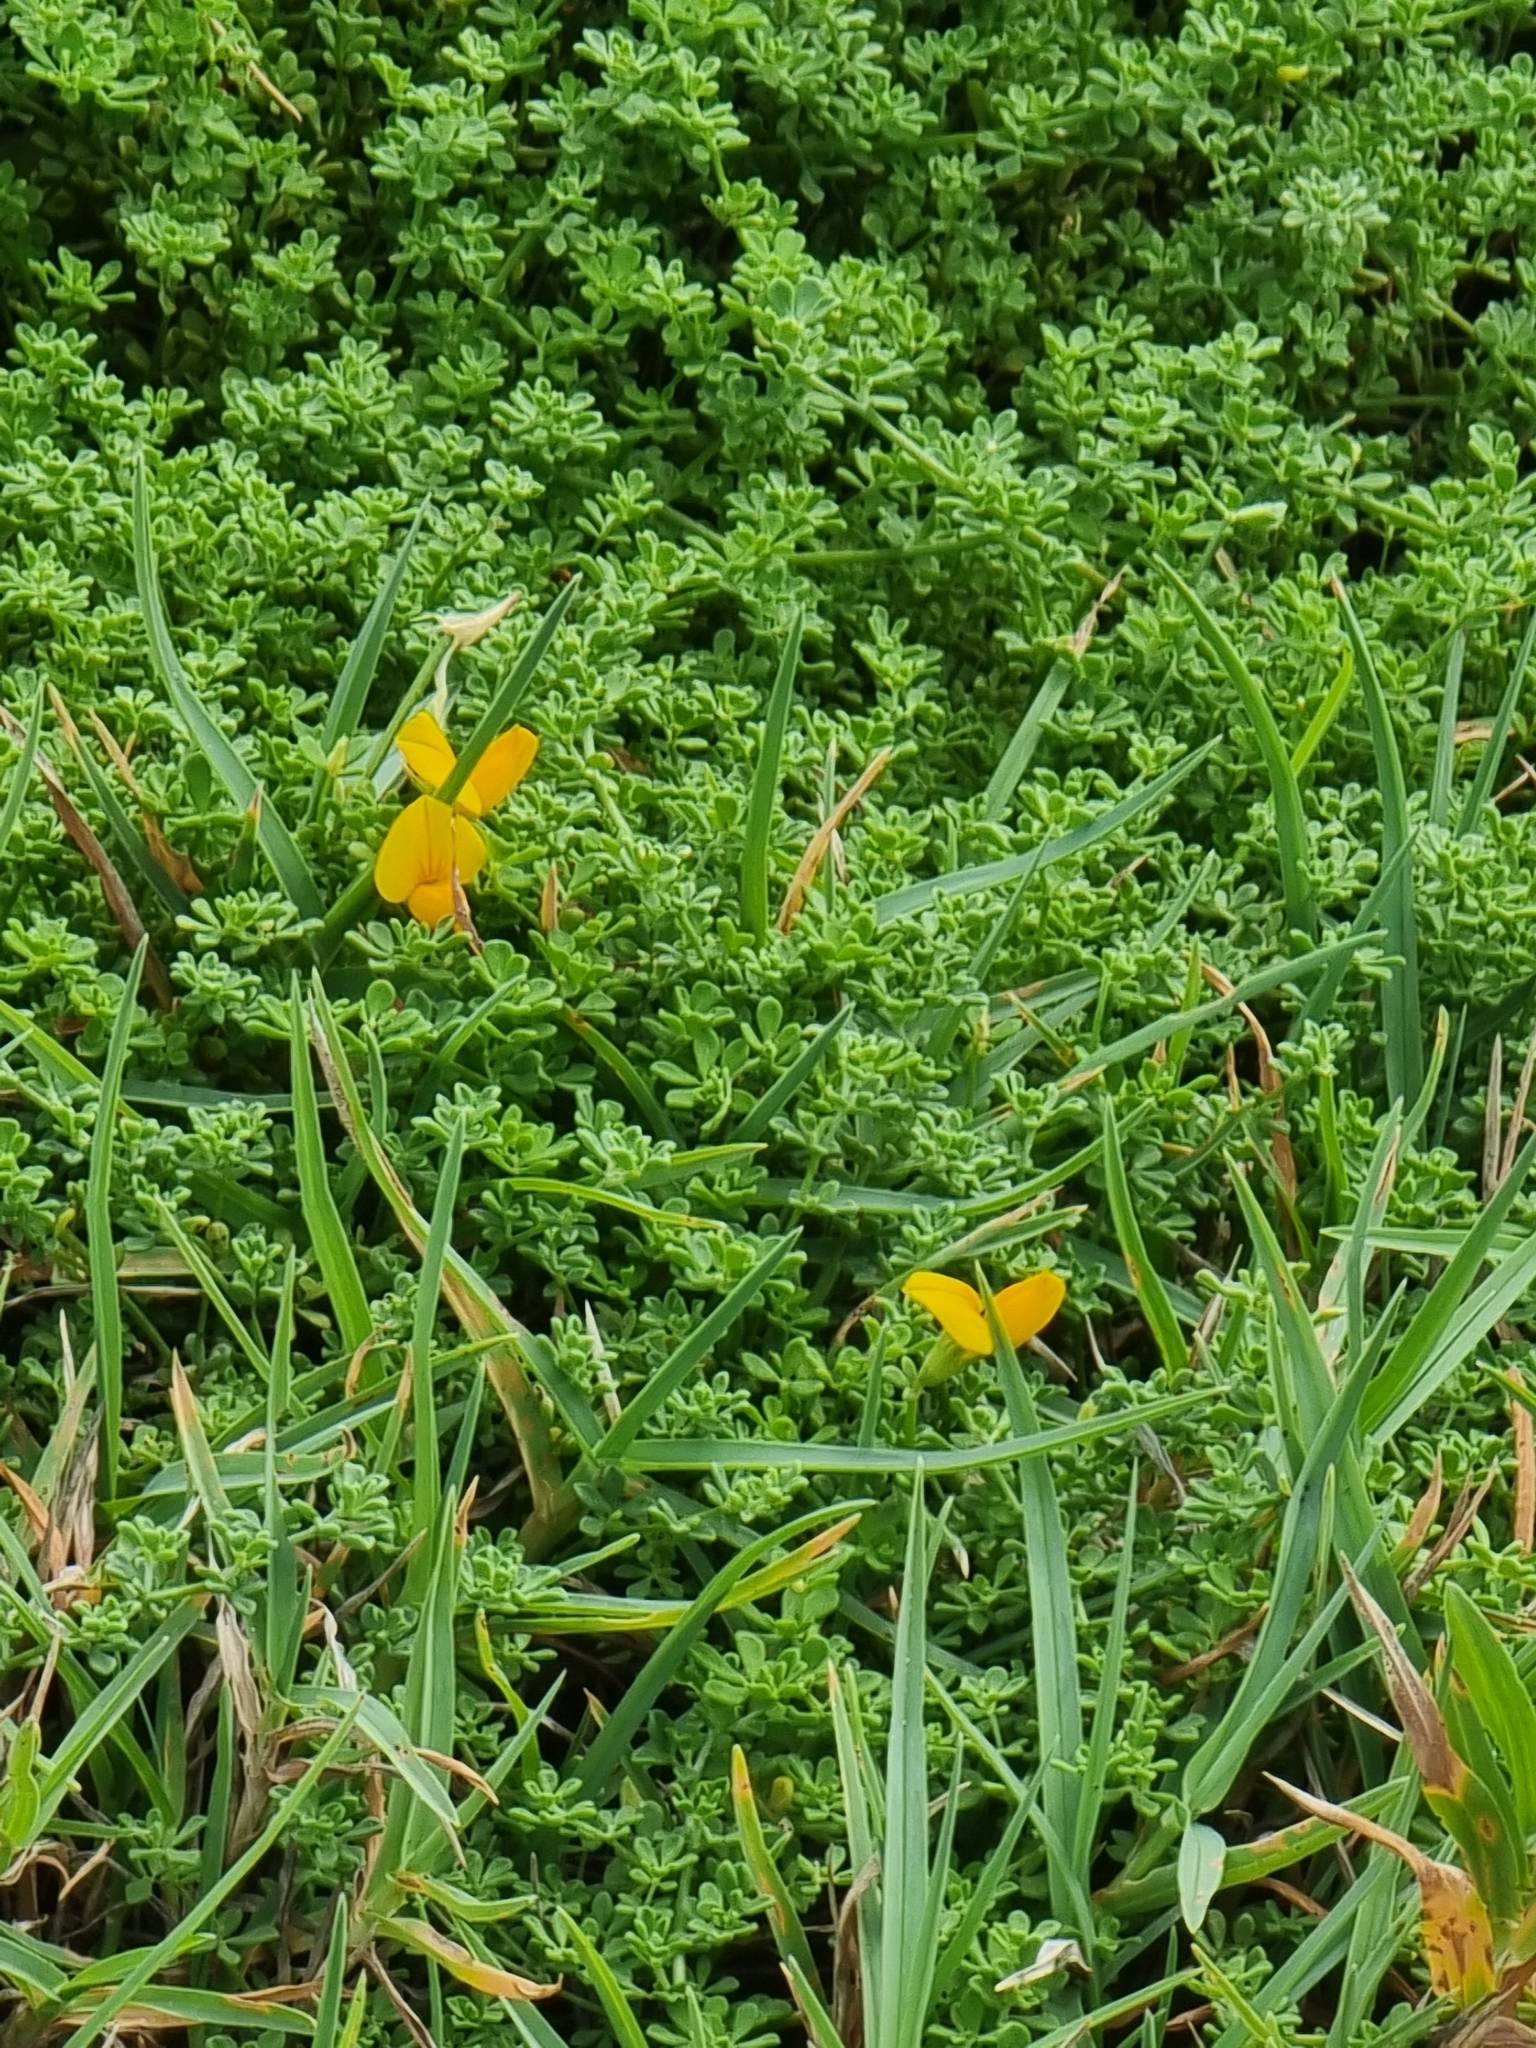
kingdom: Plantae
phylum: Tracheophyta
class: Magnoliopsida
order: Fabales
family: Fabaceae
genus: Lotus
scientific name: Lotus glaucus
